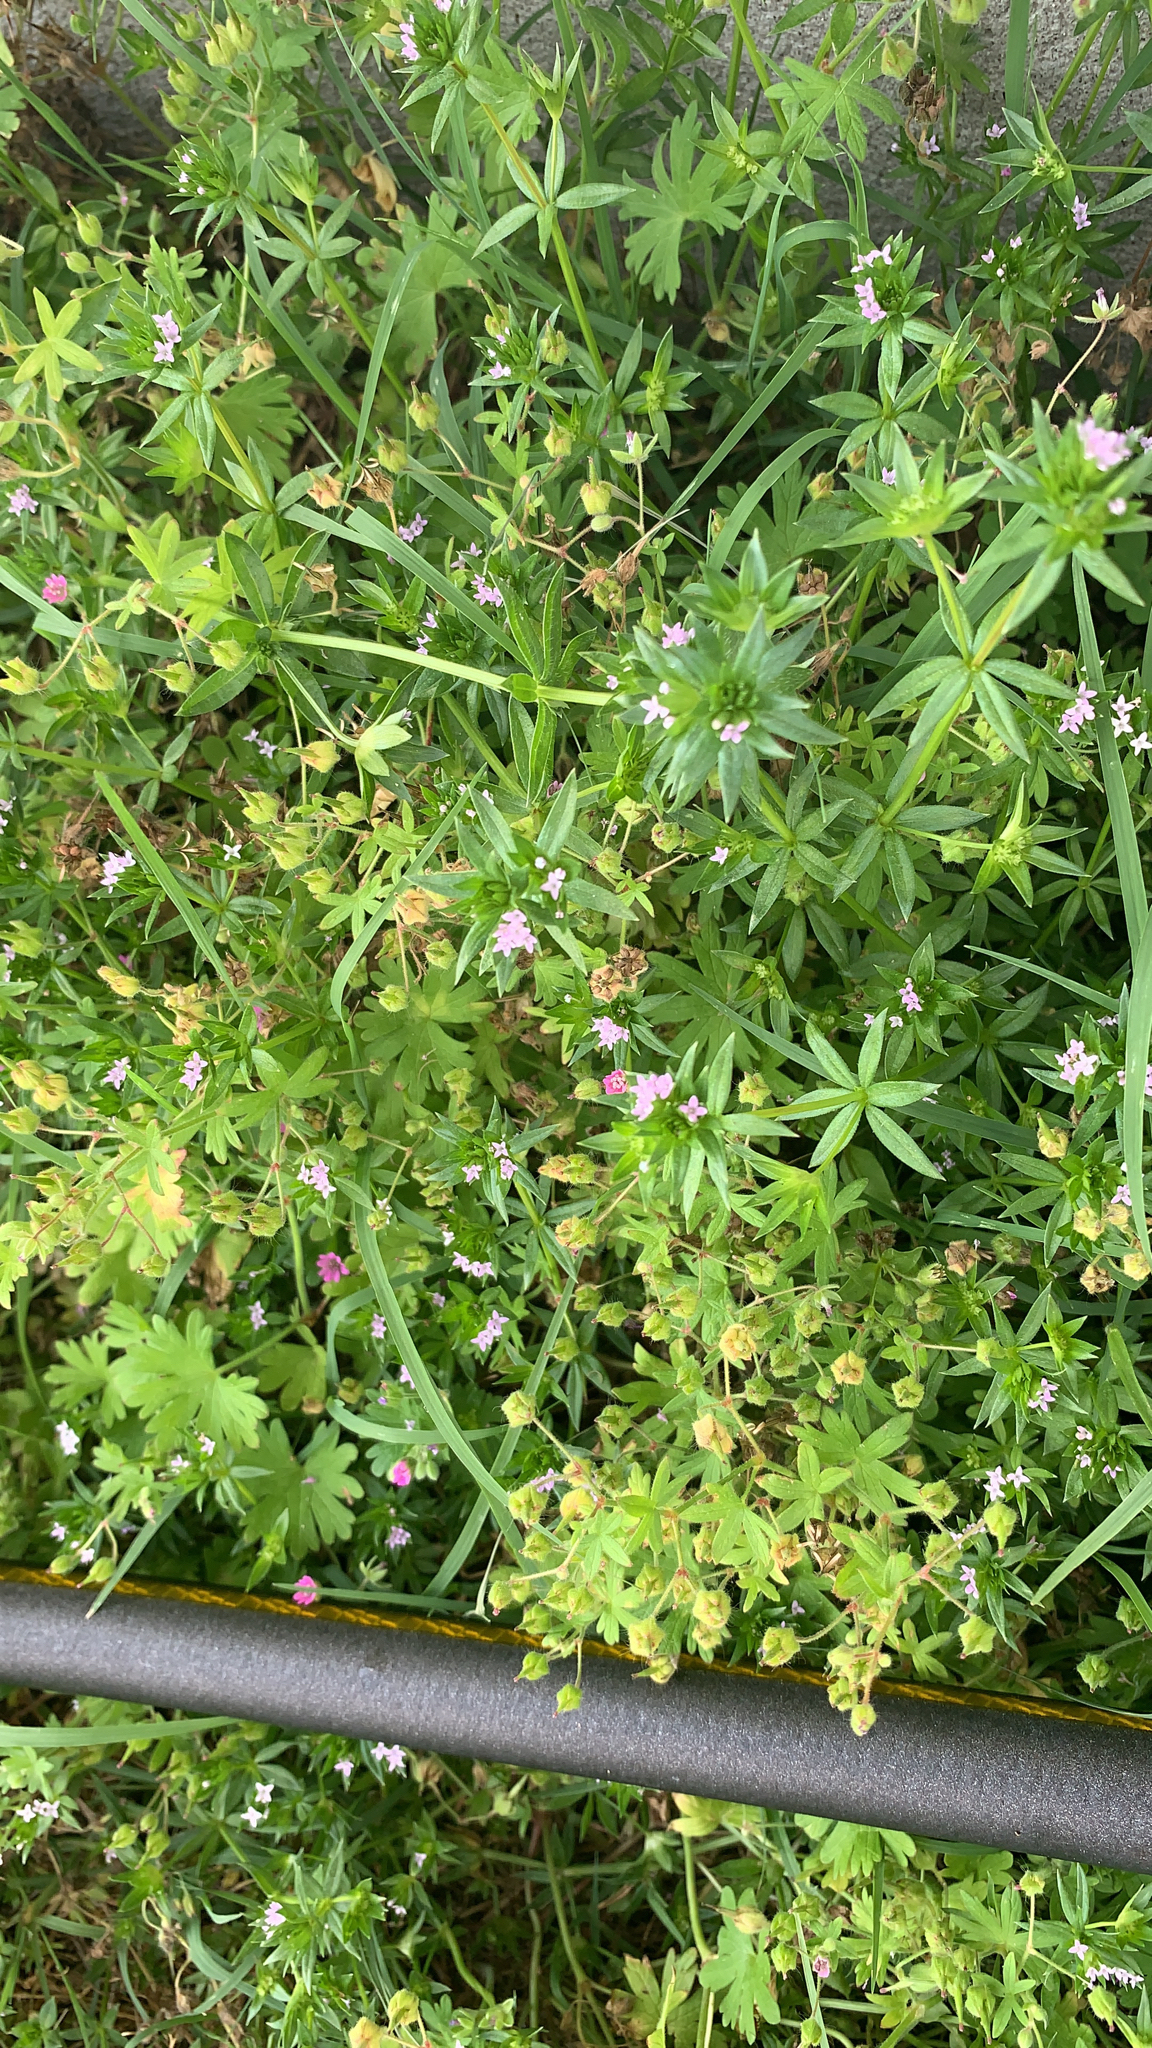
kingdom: Plantae
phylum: Tracheophyta
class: Magnoliopsida
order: Gentianales
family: Rubiaceae
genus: Sherardia
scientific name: Sherardia arvensis
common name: Field madder
